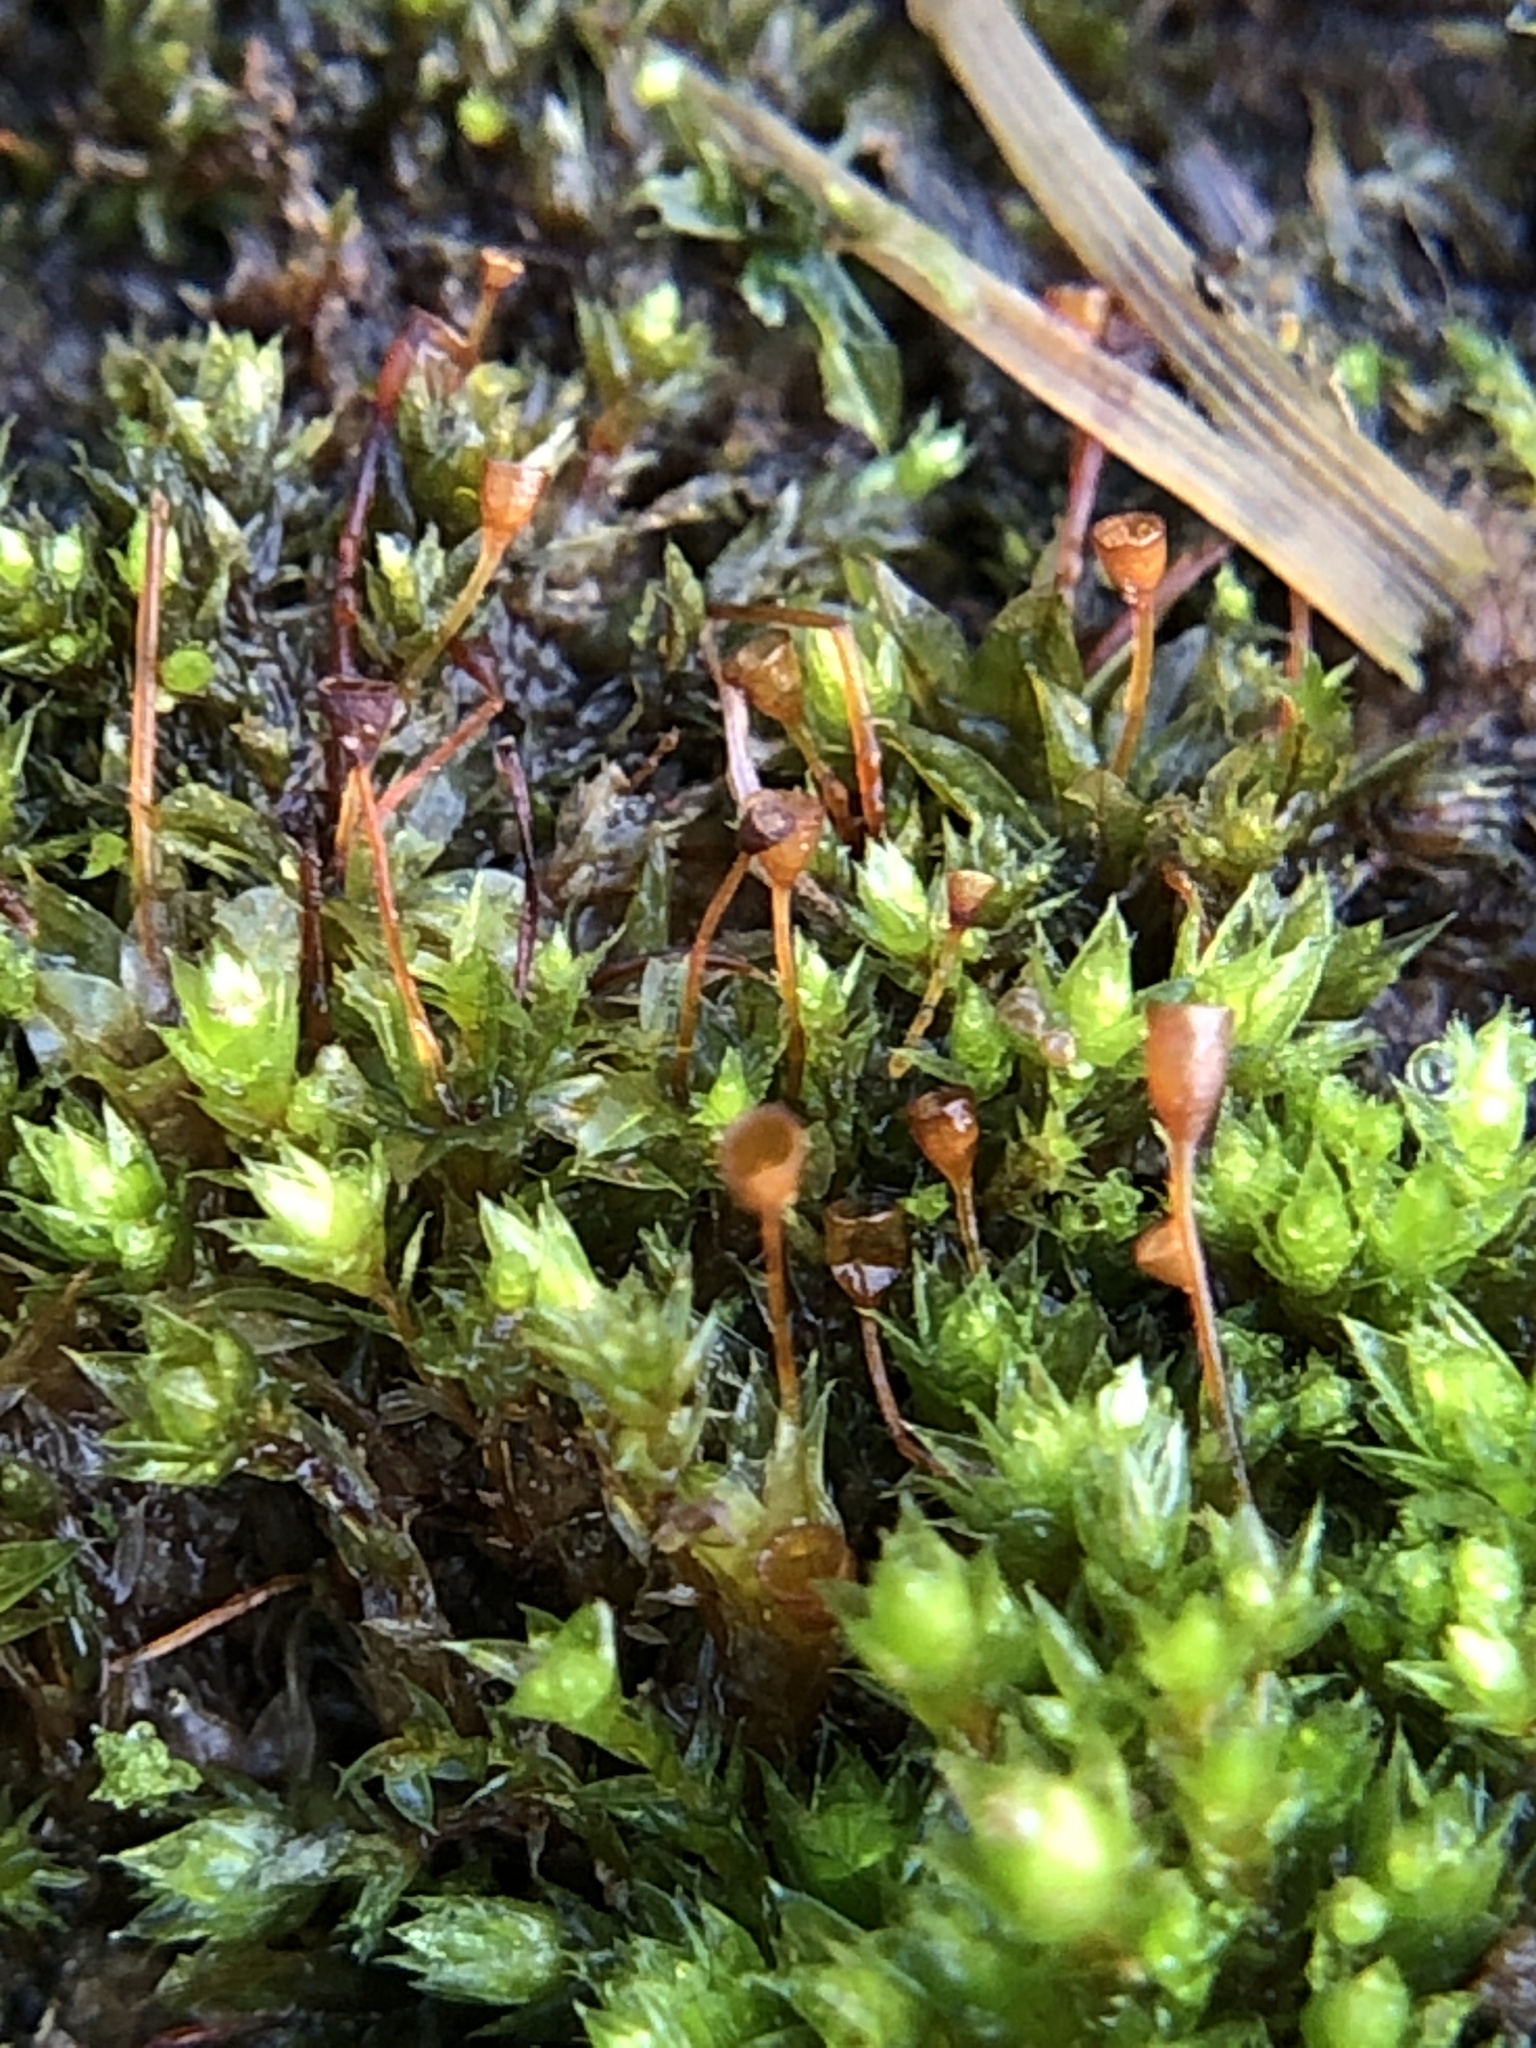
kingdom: Plantae
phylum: Bryophyta
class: Bryopsida
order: Pottiales
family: Pottiaceae
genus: Tortula
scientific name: Tortula truncata
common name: Truncated screw moss
